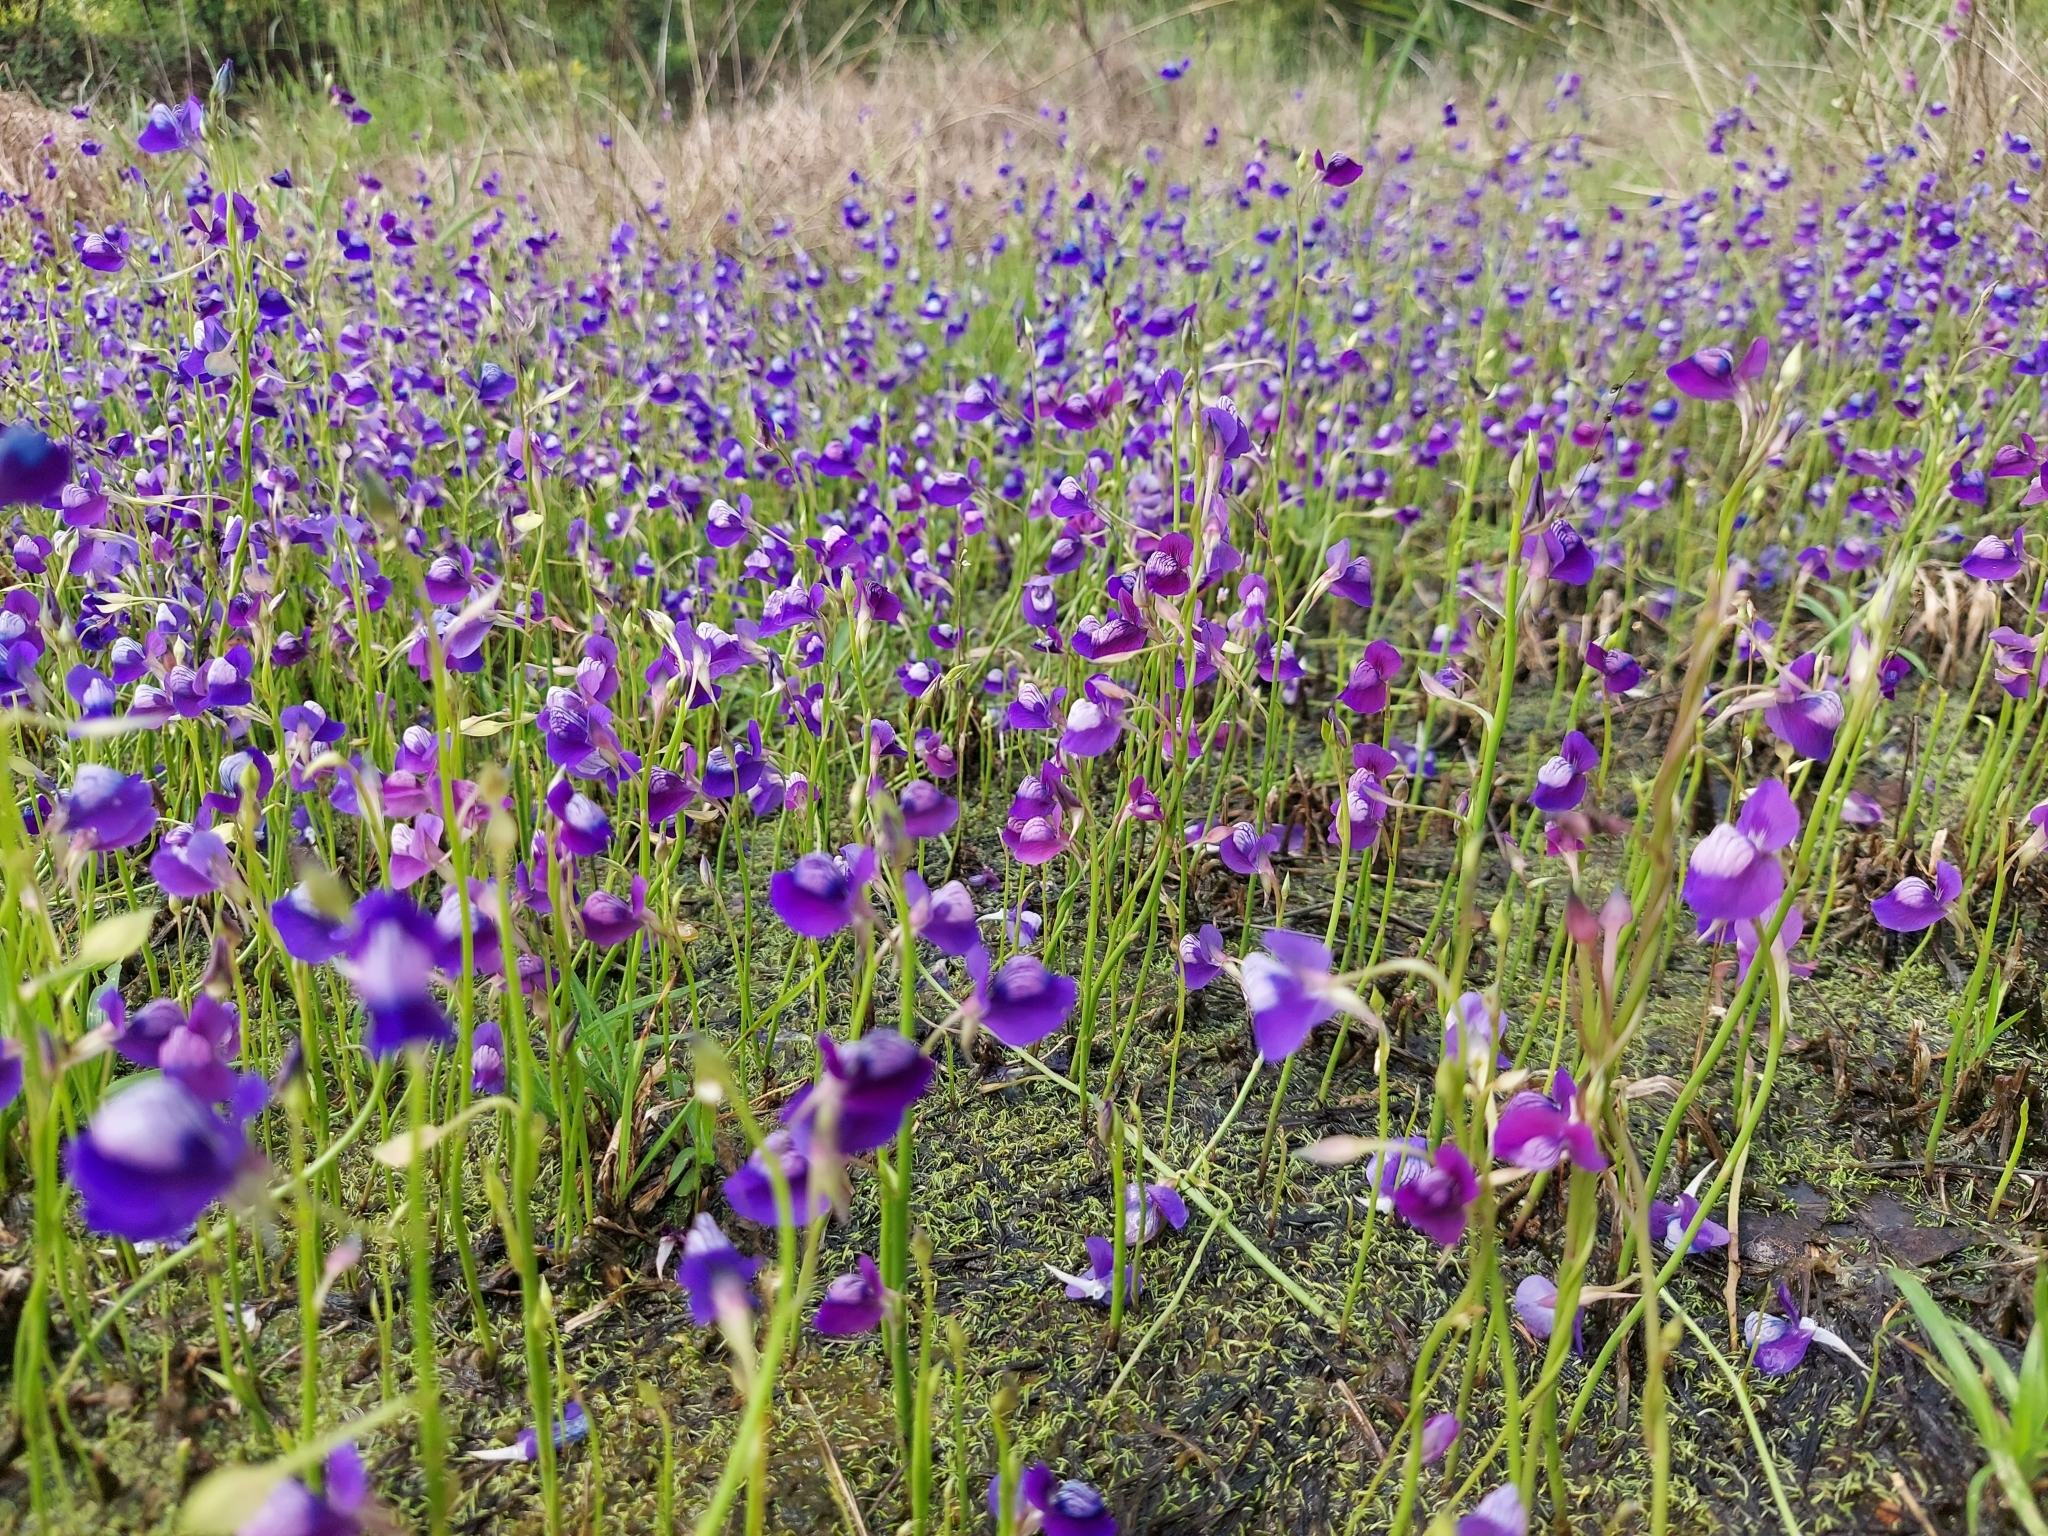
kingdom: Plantae
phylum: Tracheophyta
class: Magnoliopsida
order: Lamiales
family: Lentibulariaceae
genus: Utricularia
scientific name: Utricularia reticulata
